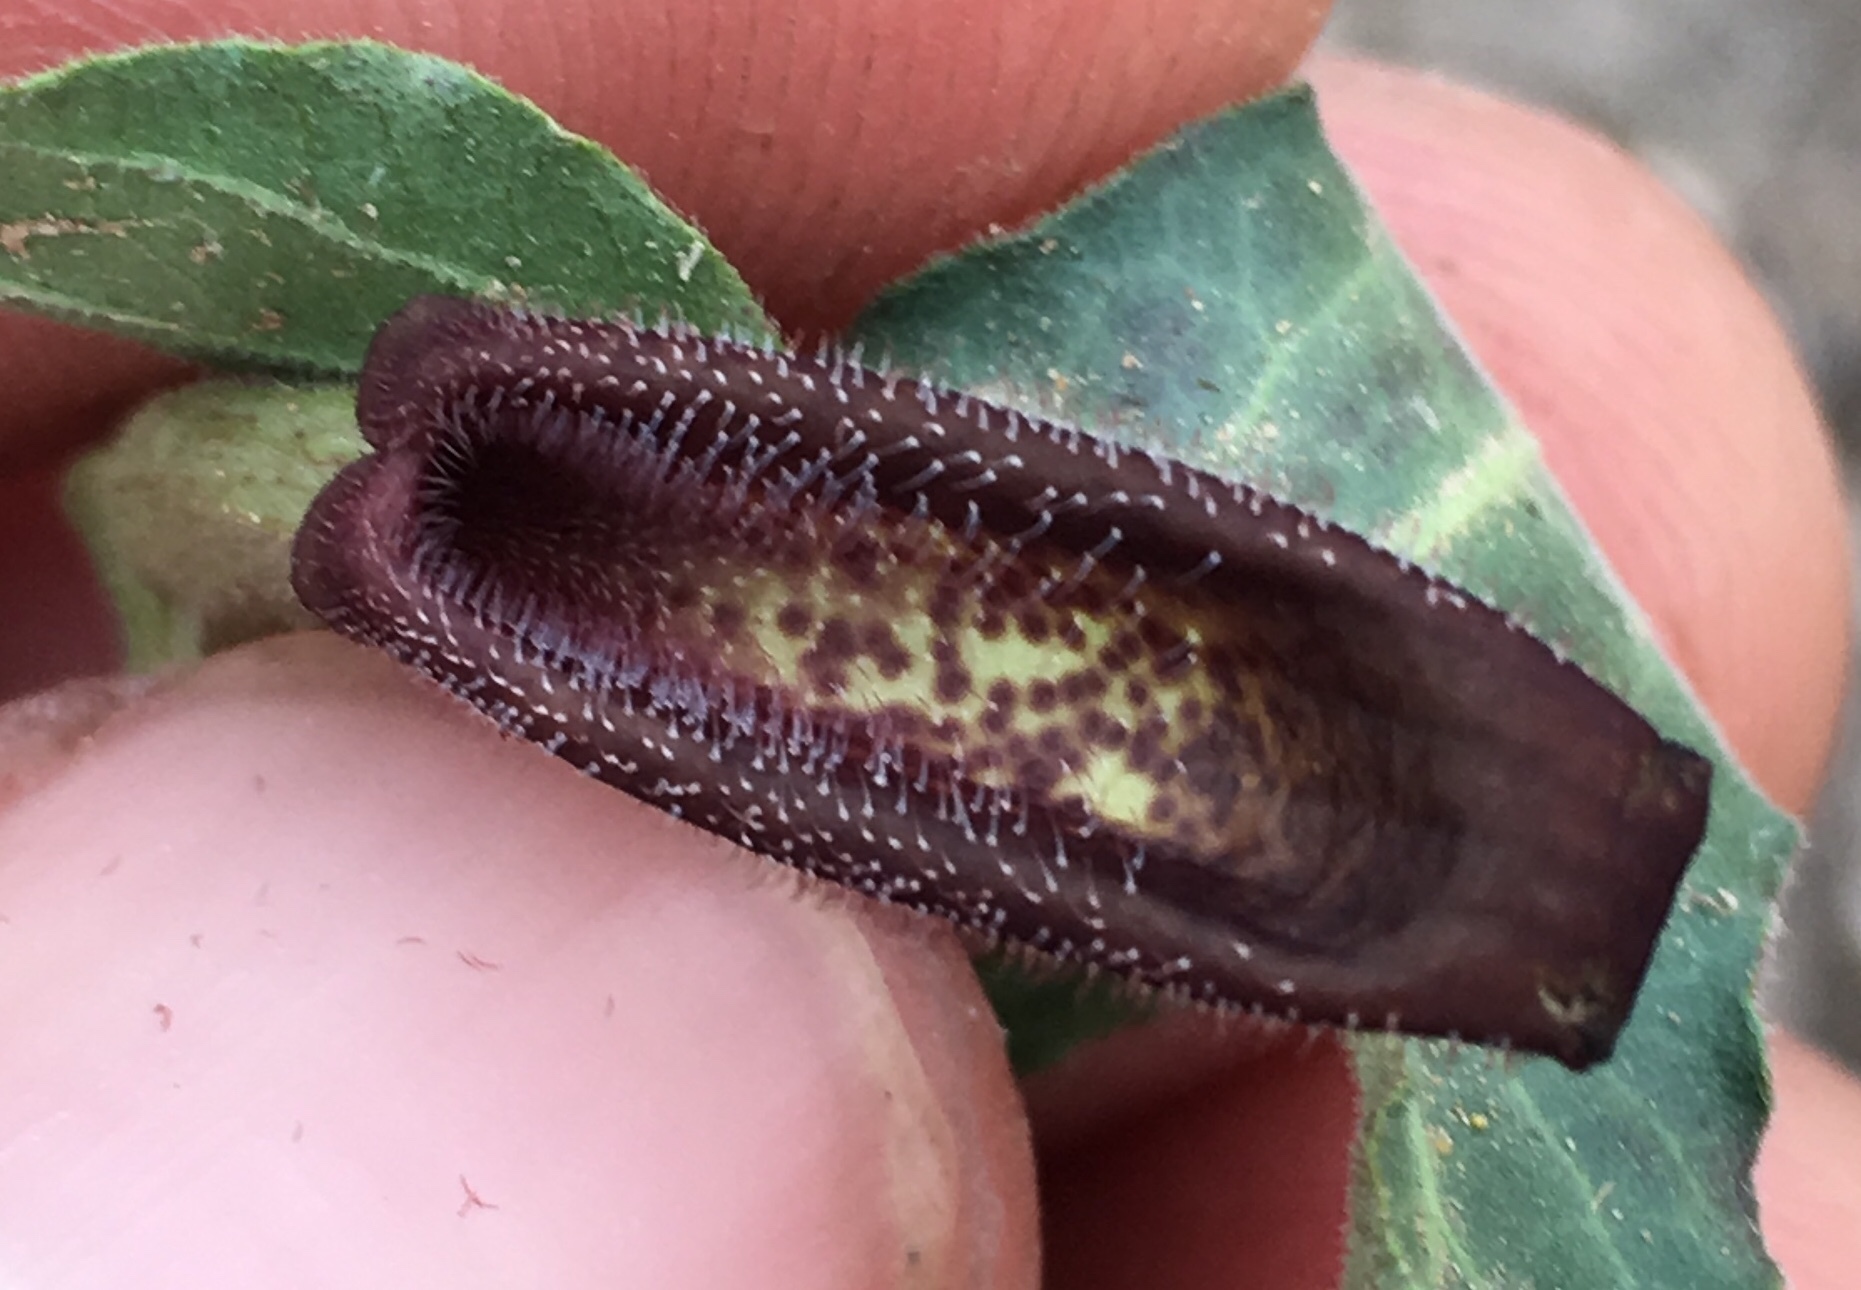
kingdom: Plantae
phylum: Tracheophyta
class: Magnoliopsida
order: Piperales
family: Aristolochiaceae
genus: Aristolochia
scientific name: Aristolochia watsonii
